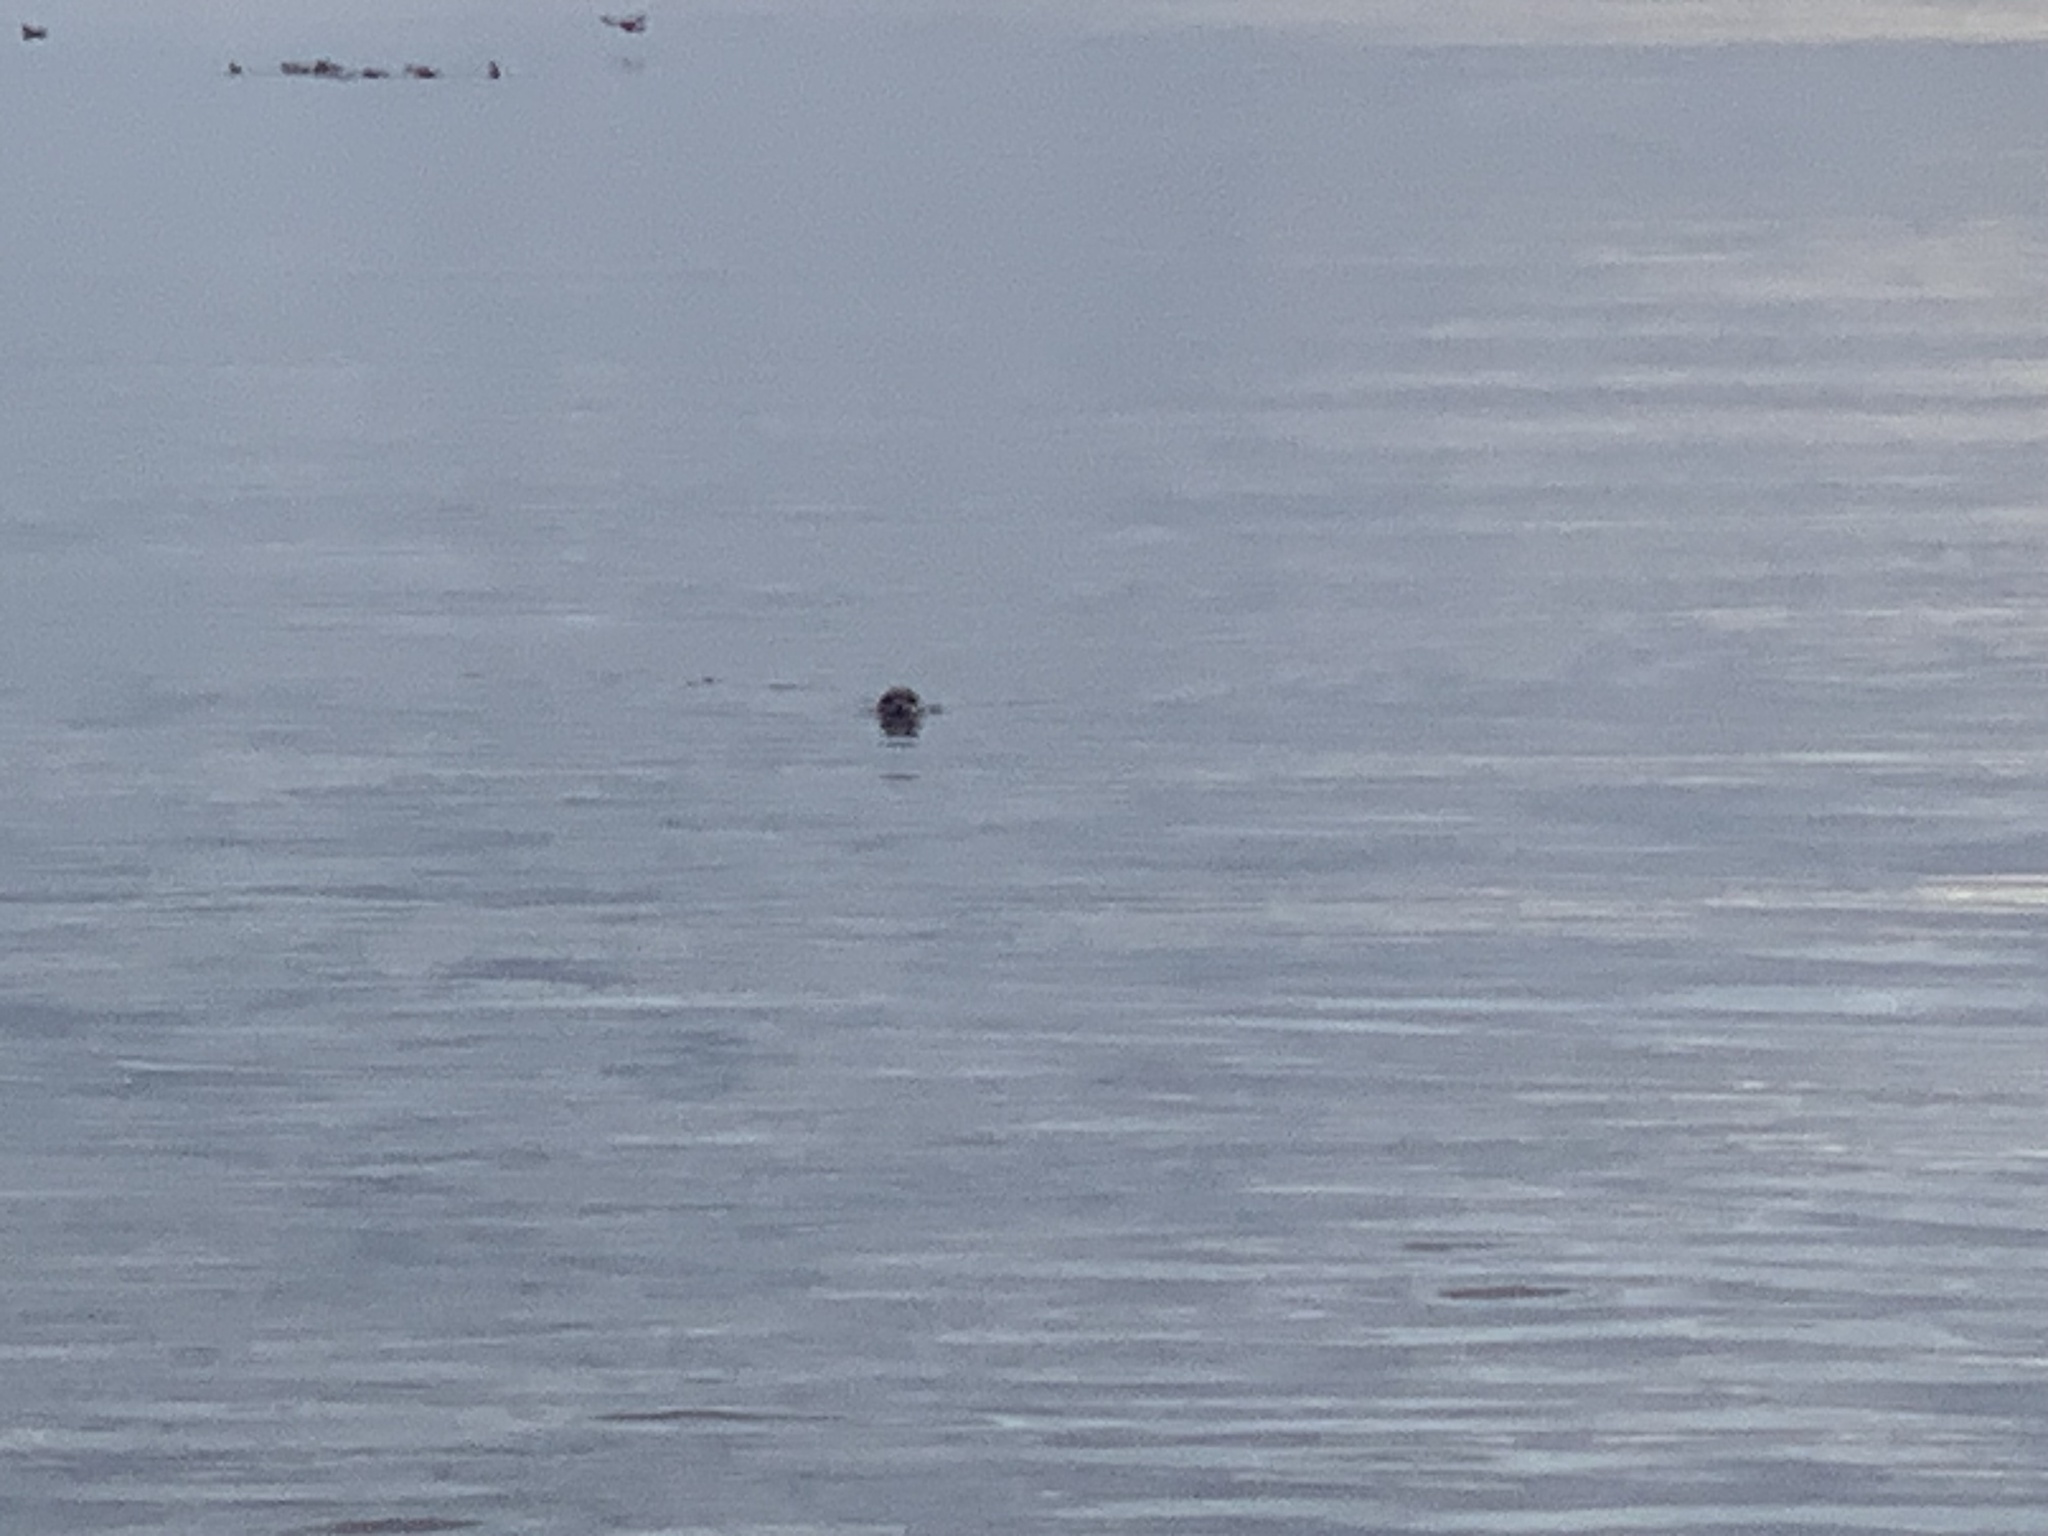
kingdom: Animalia
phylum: Chordata
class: Mammalia
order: Carnivora
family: Phocidae
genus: Phoca
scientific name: Phoca vitulina
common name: Harbor seal
